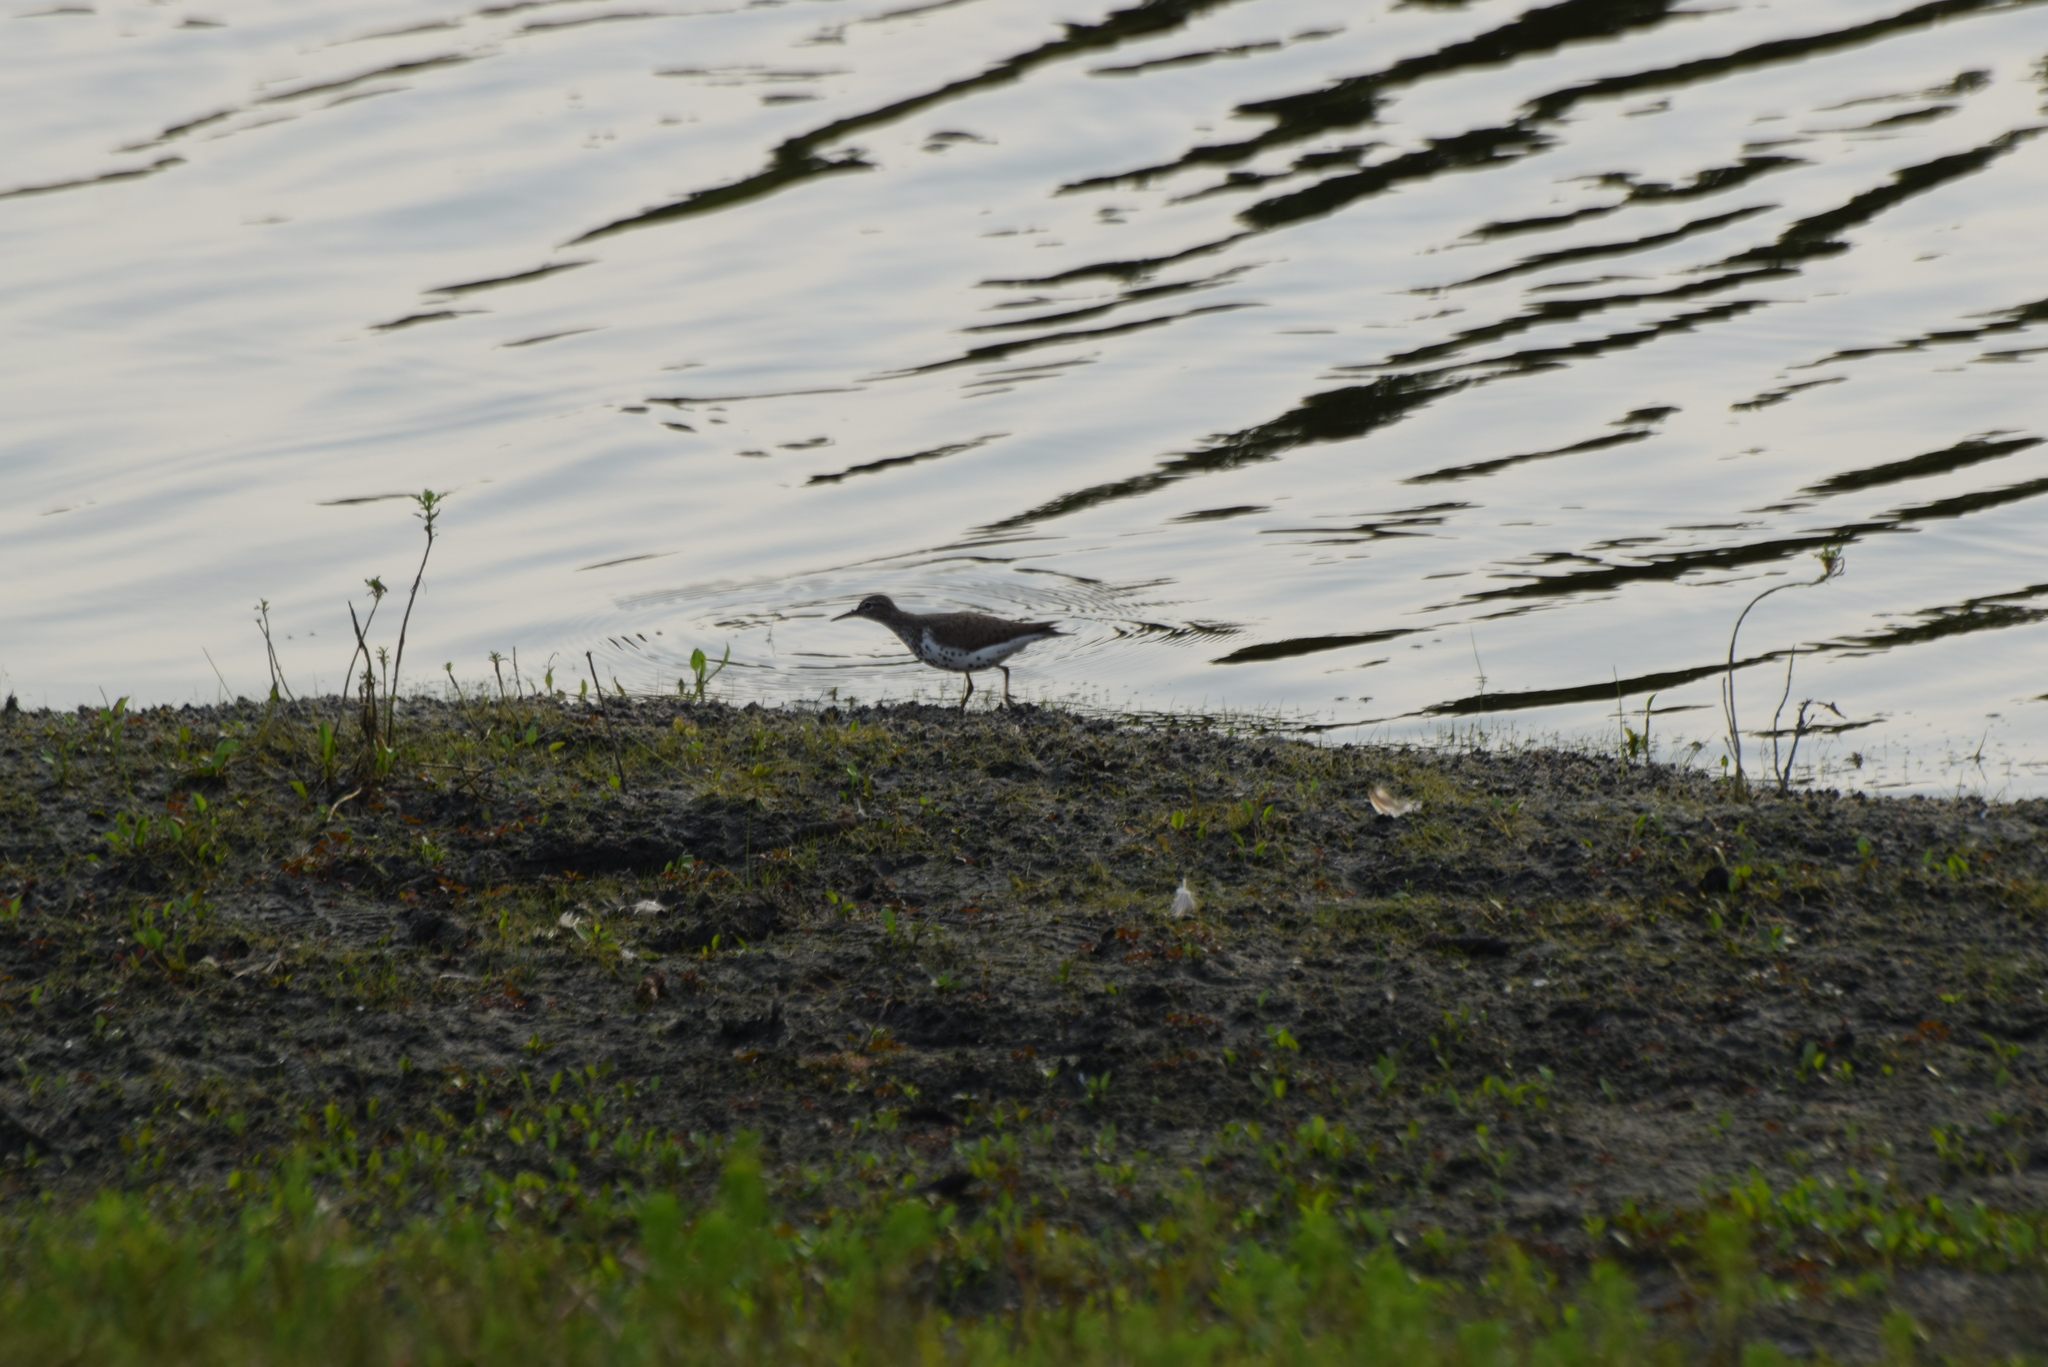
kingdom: Animalia
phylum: Chordata
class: Aves
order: Charadriiformes
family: Scolopacidae
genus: Actitis
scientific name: Actitis macularius
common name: Spotted sandpiper
